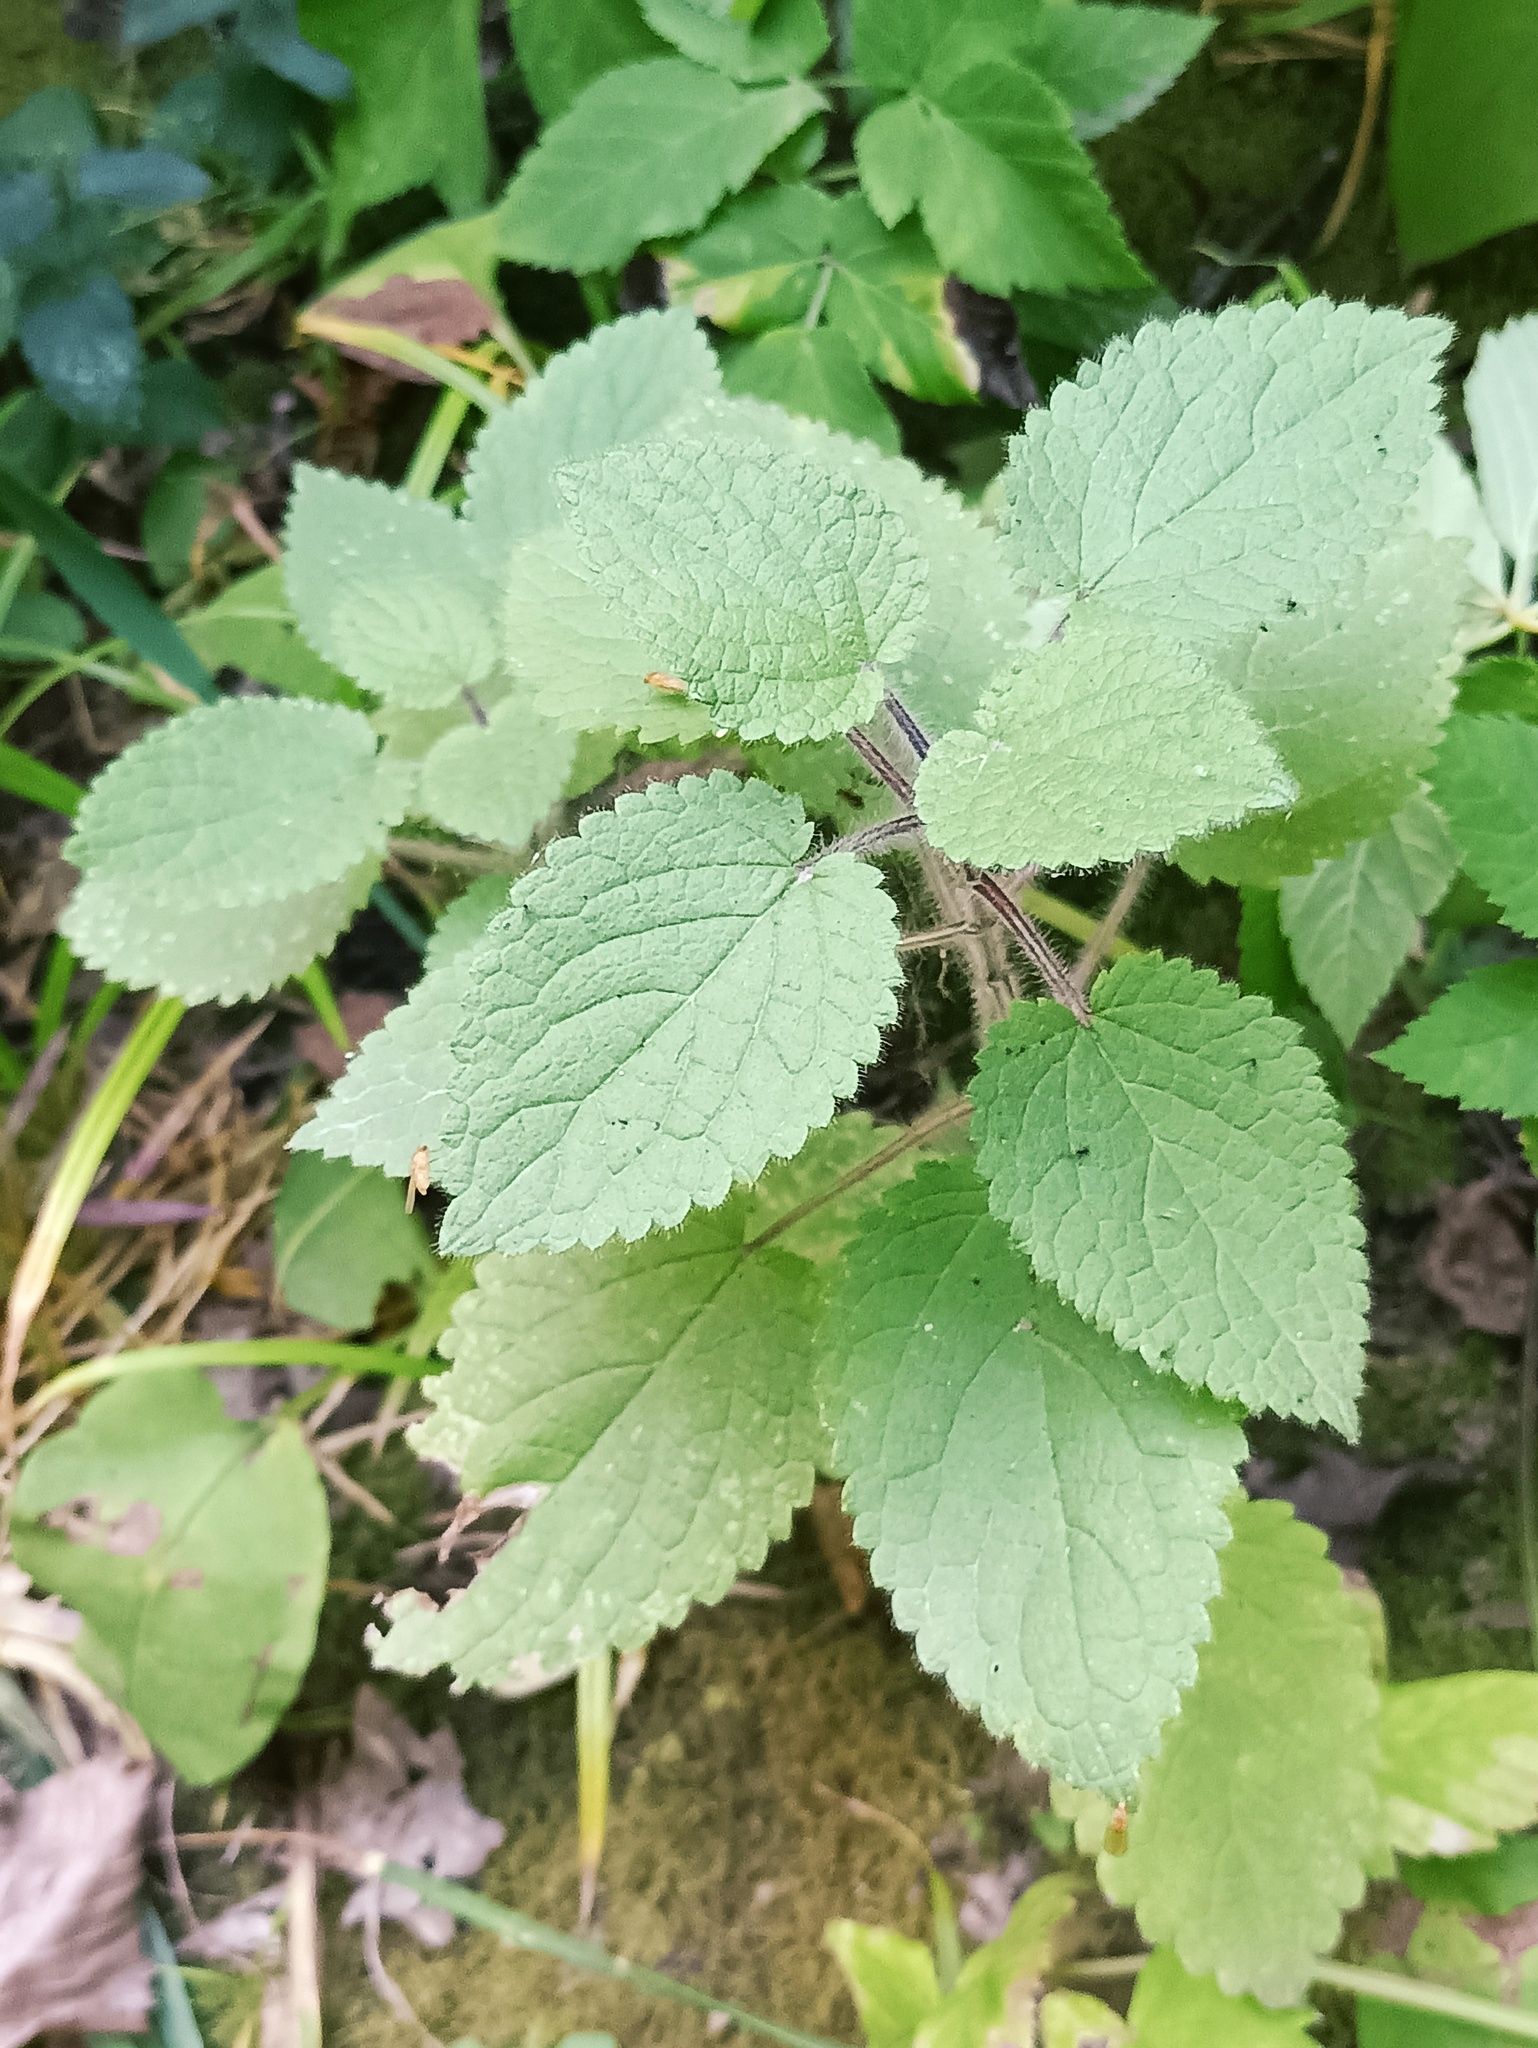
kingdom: Plantae
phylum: Tracheophyta
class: Magnoliopsida
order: Lamiales
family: Lamiaceae
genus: Stachys
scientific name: Stachys sylvatica
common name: Hedge woundwort
